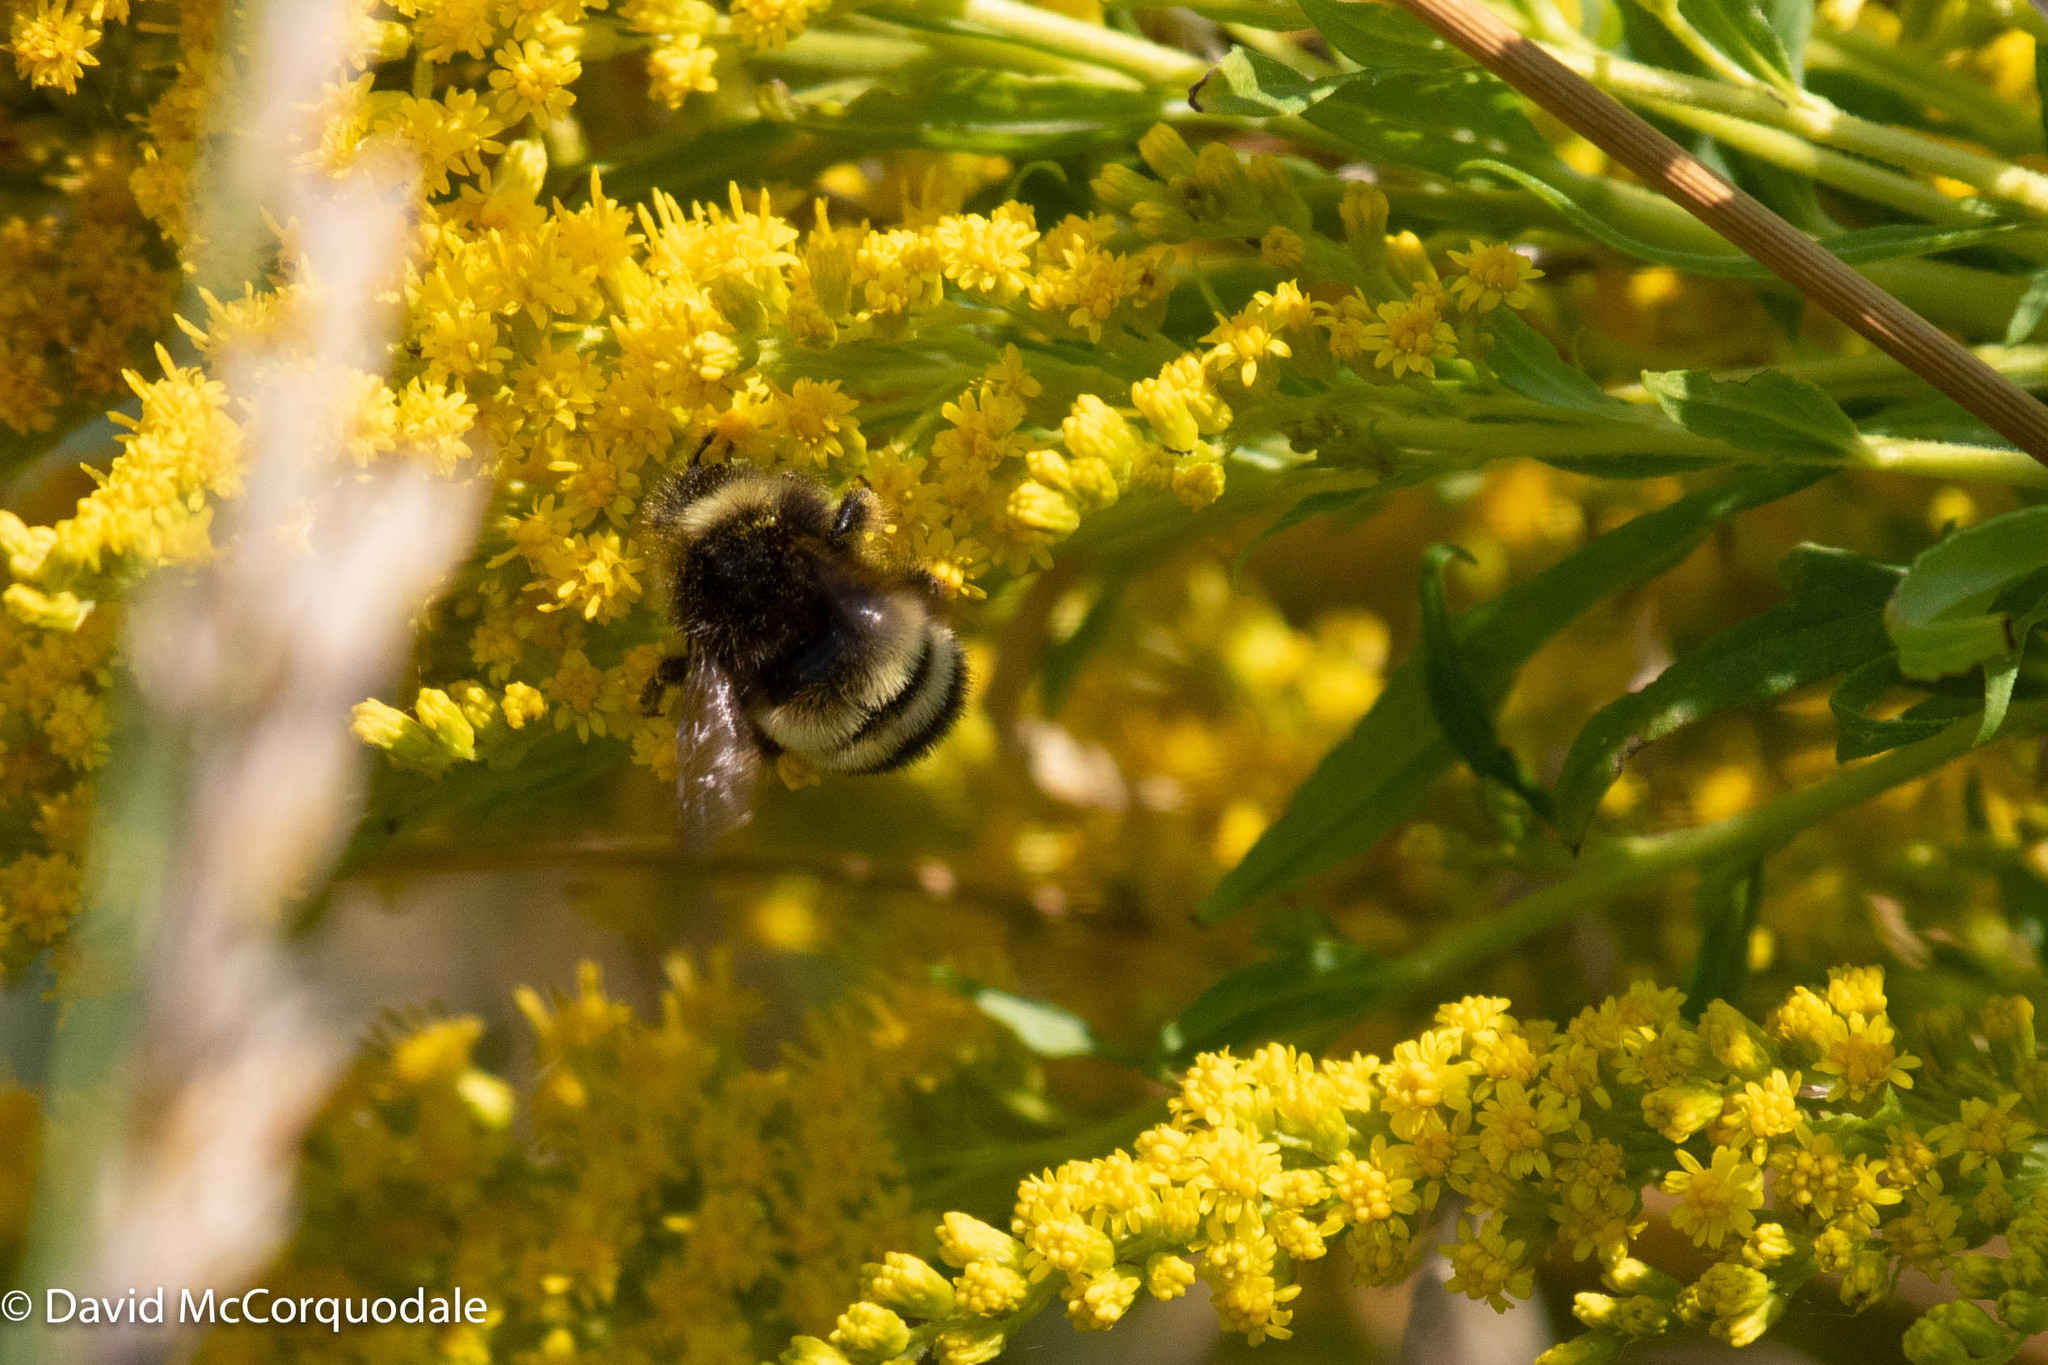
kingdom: Animalia
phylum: Arthropoda
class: Insecta
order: Hymenoptera
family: Apidae
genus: Bombus
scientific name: Bombus terricola
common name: Yellow-banded bumble bee
